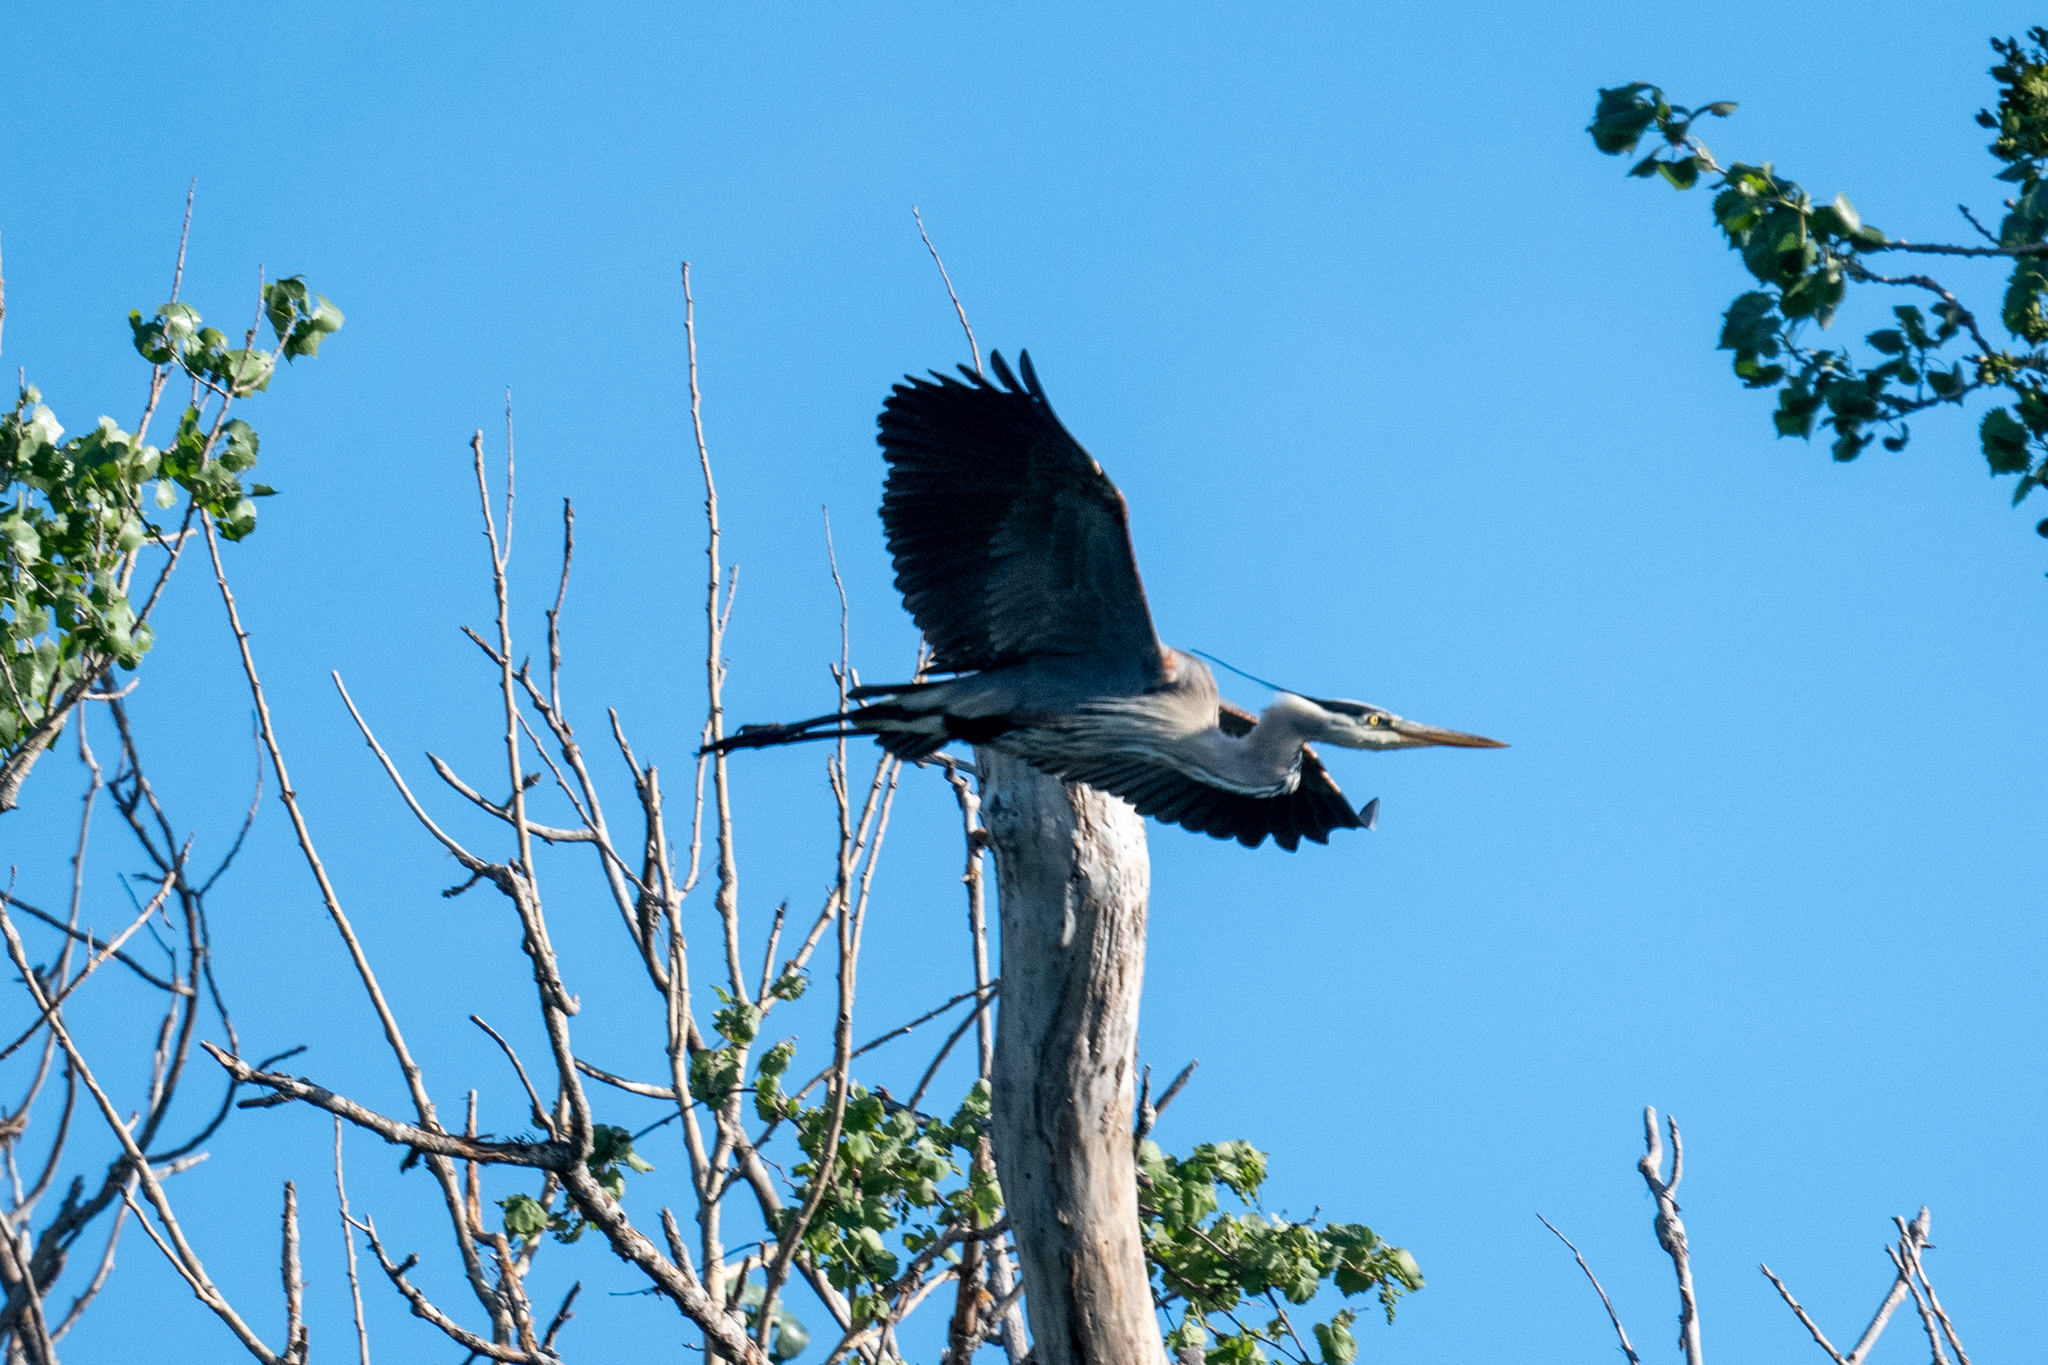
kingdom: Animalia
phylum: Chordata
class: Aves
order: Pelecaniformes
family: Ardeidae
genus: Ardea
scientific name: Ardea herodias
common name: Great blue heron
